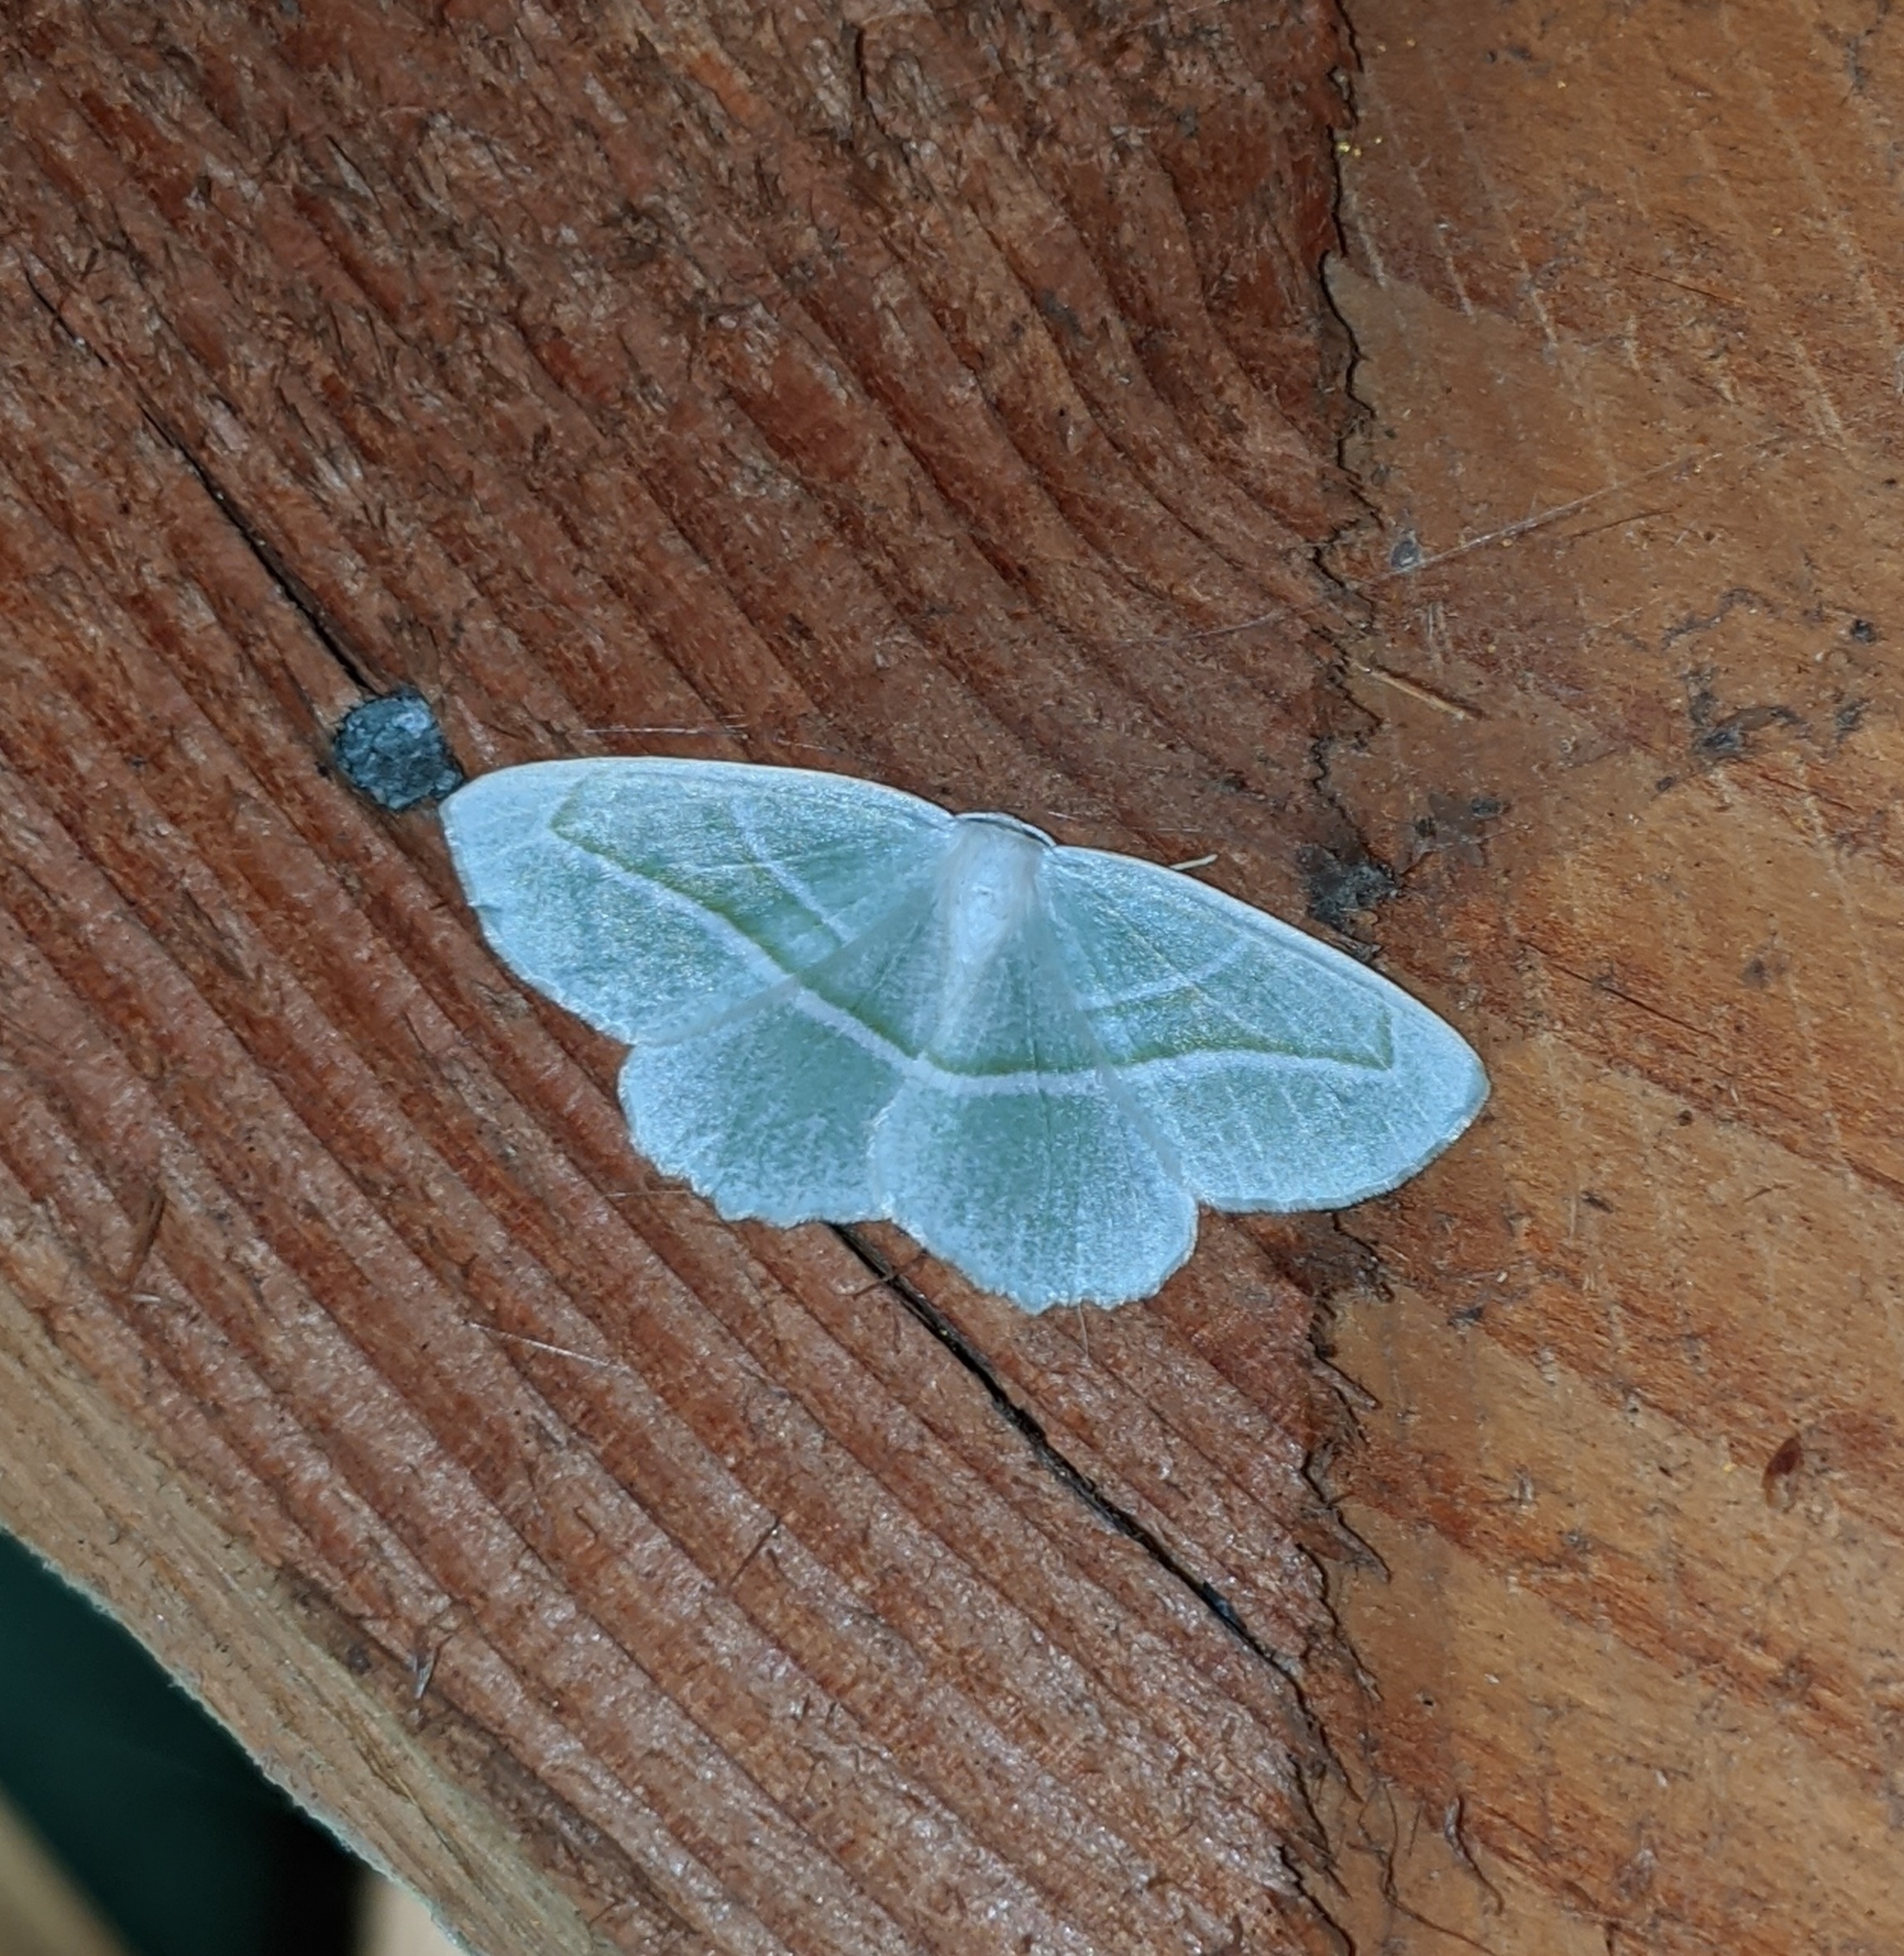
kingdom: Animalia
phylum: Arthropoda
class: Insecta
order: Lepidoptera
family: Geometridae
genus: Campaea
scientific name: Campaea perlata
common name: Fringed looper
